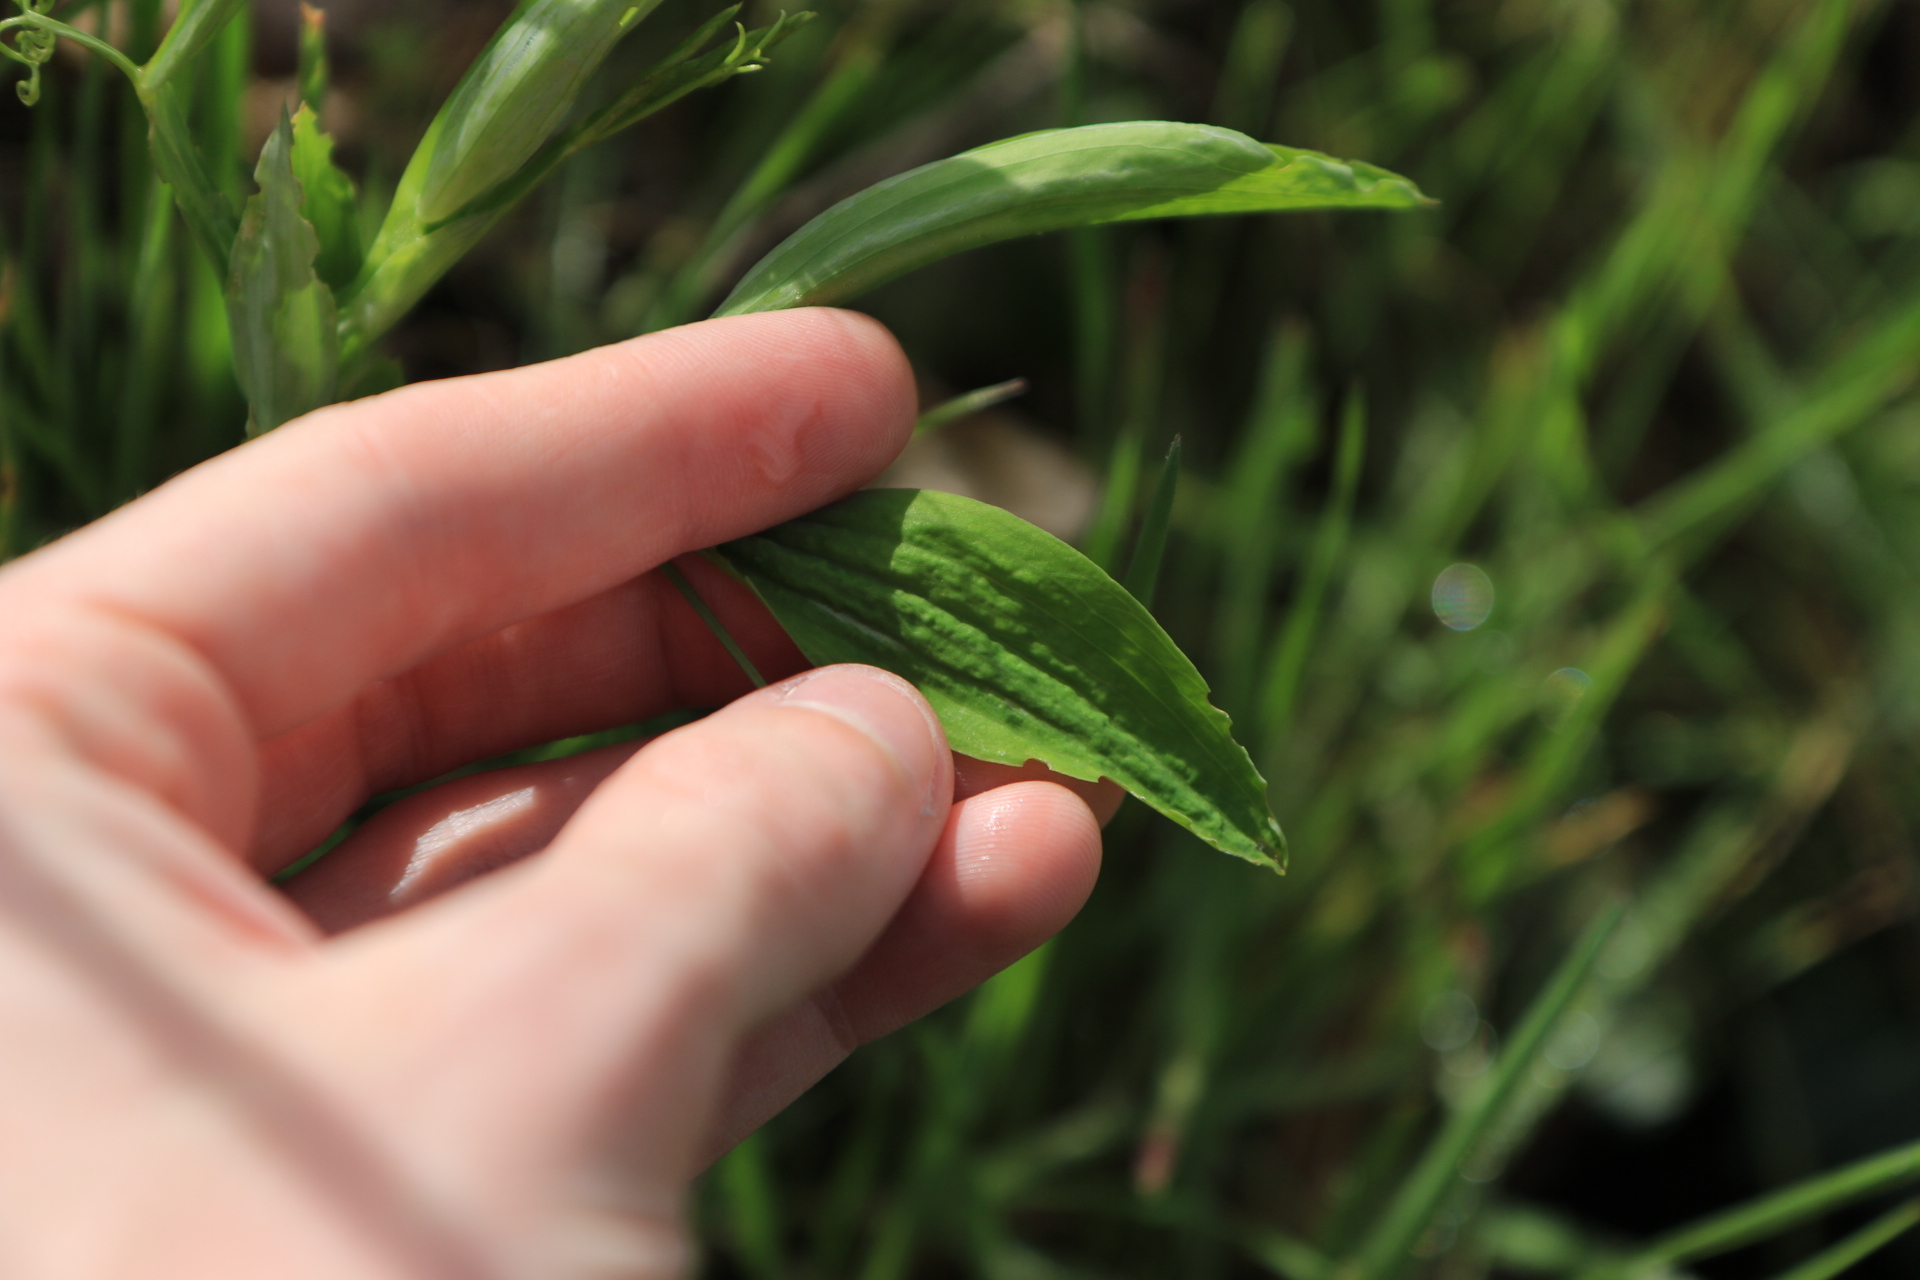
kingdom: Plantae
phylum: Tracheophyta
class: Magnoliopsida
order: Fabales
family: Fabaceae
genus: Lathyrus
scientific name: Lathyrus latifolius
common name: Perennial pea
